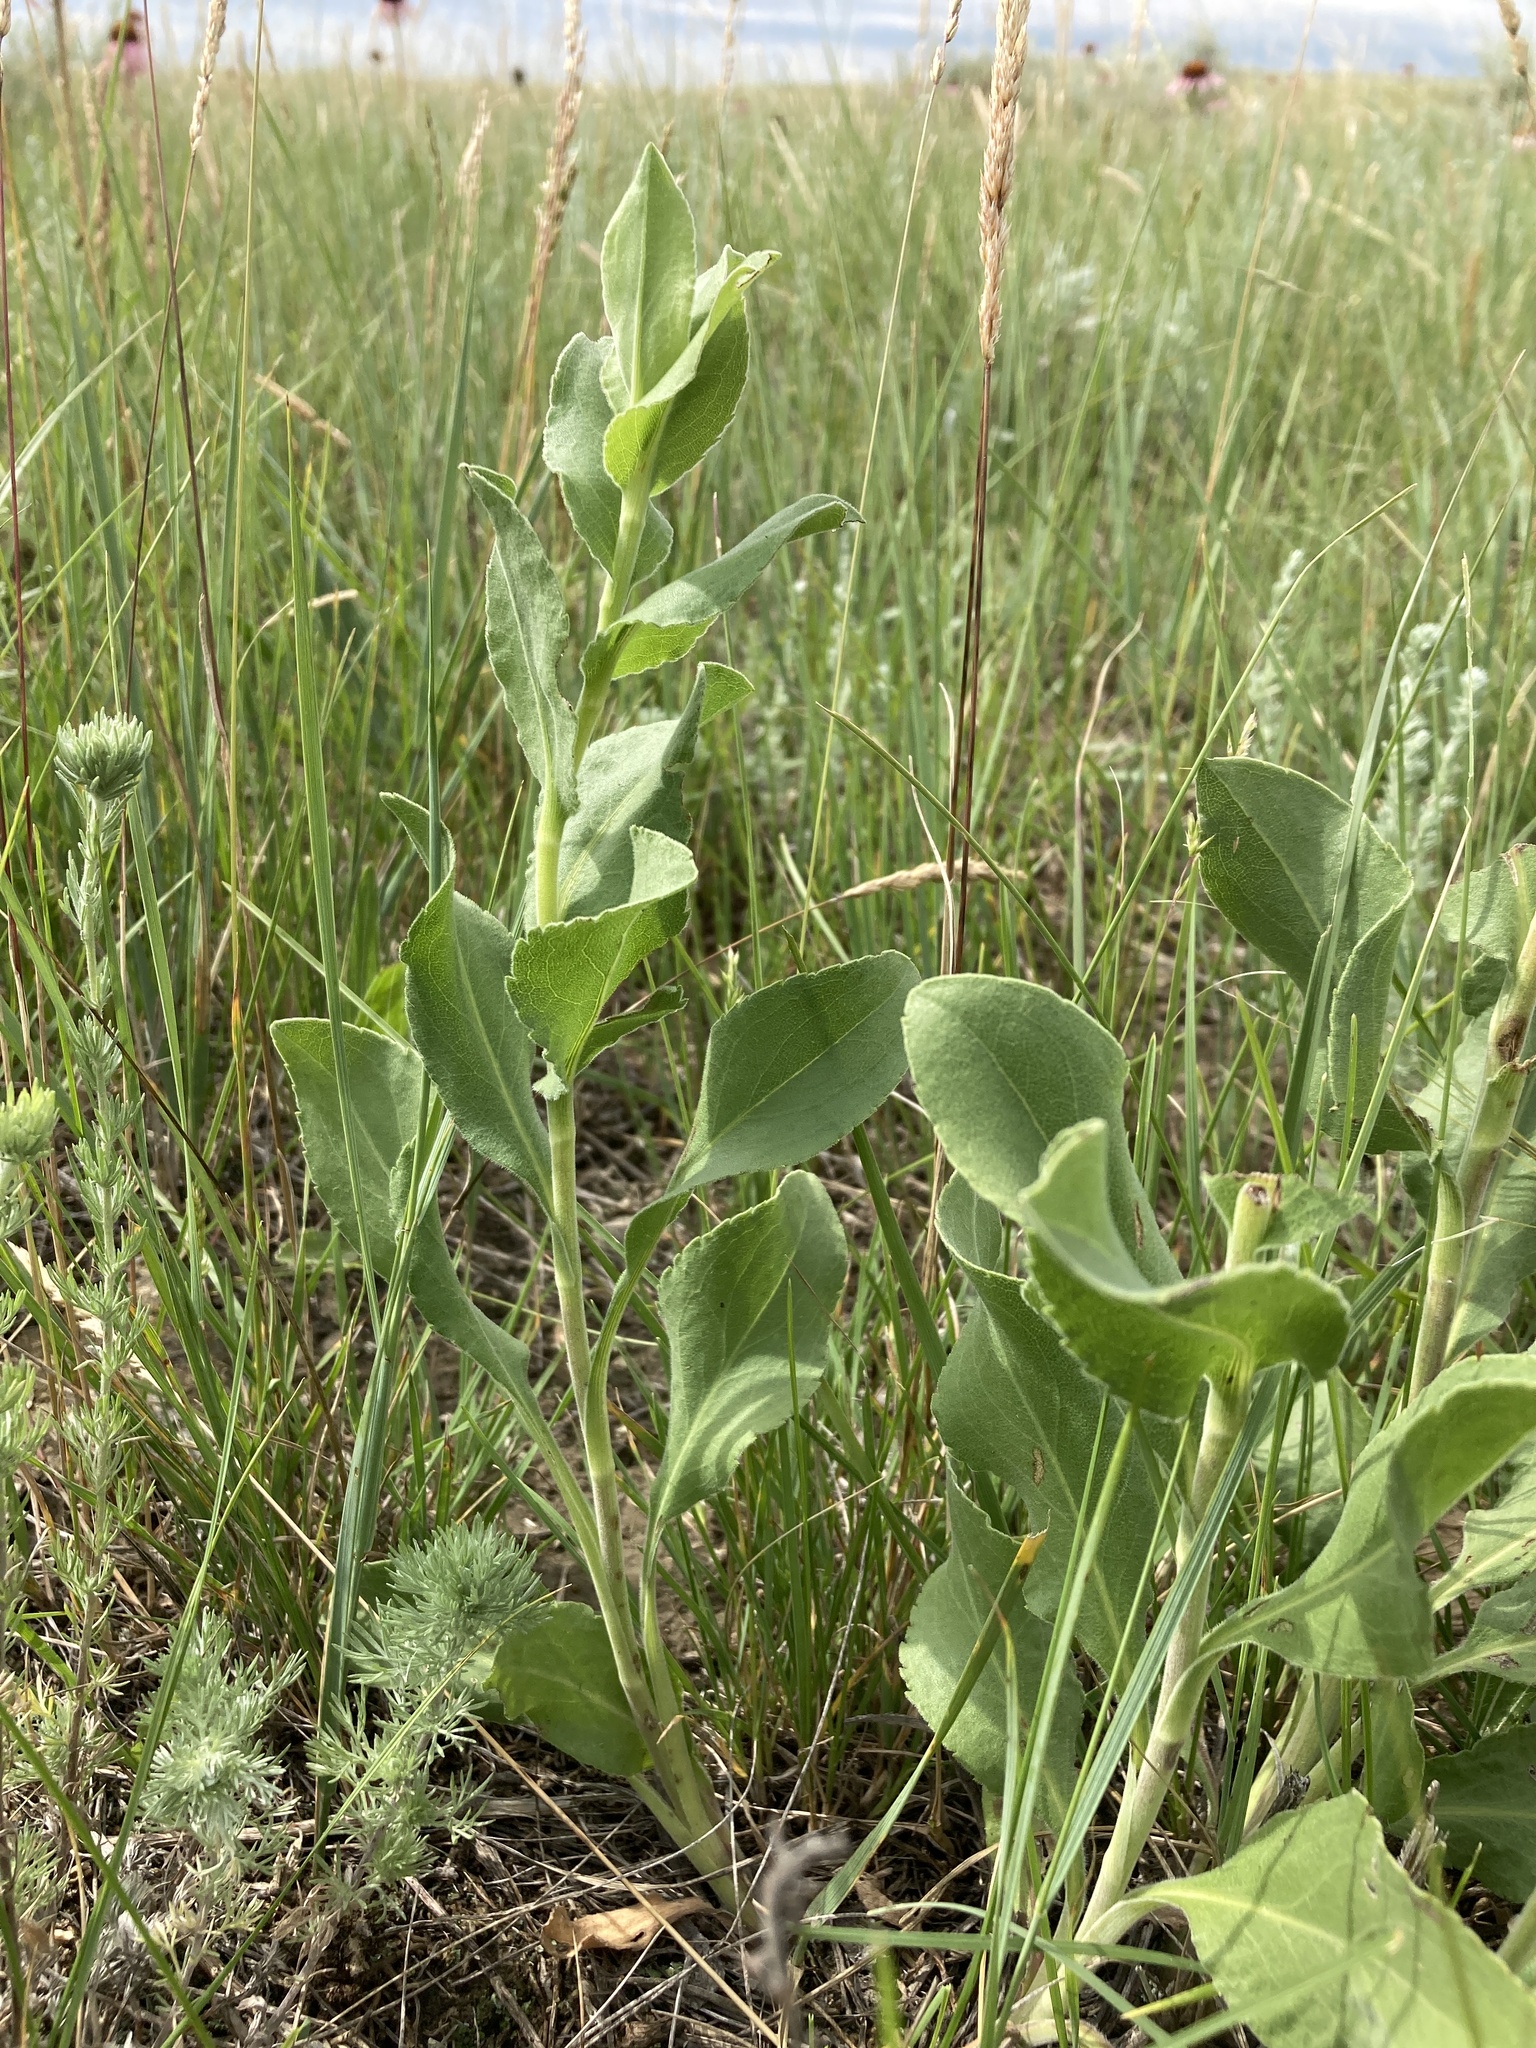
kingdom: Plantae
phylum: Tracheophyta
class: Magnoliopsida
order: Asterales
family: Asteraceae
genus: Solidago
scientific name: Solidago rigida
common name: Rigid goldenrod
